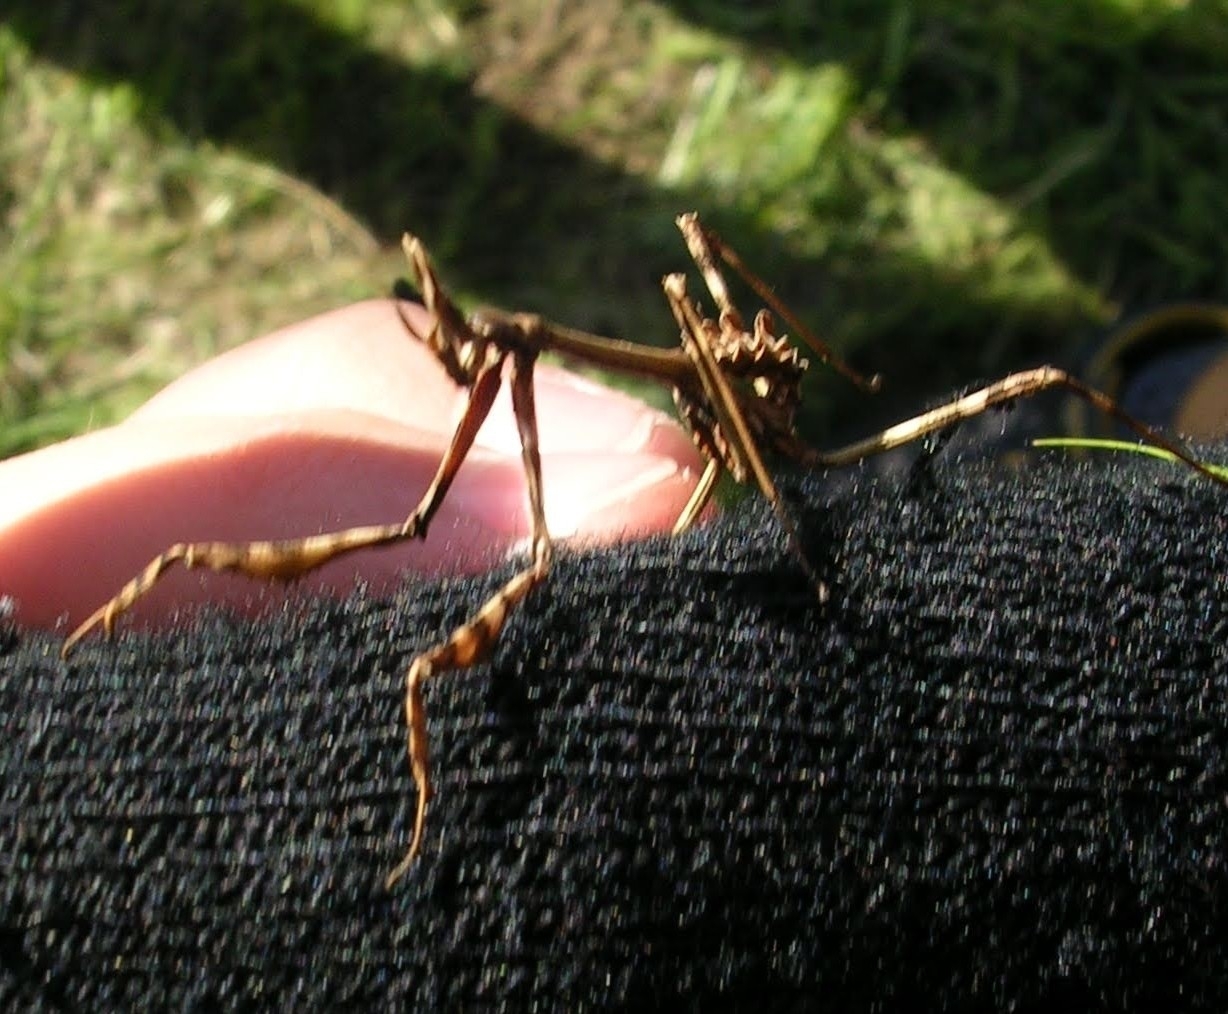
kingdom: Animalia
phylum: Arthropoda
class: Insecta
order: Mantodea
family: Empusidae
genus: Empusa
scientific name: Empusa pennata
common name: Conehead mantis
